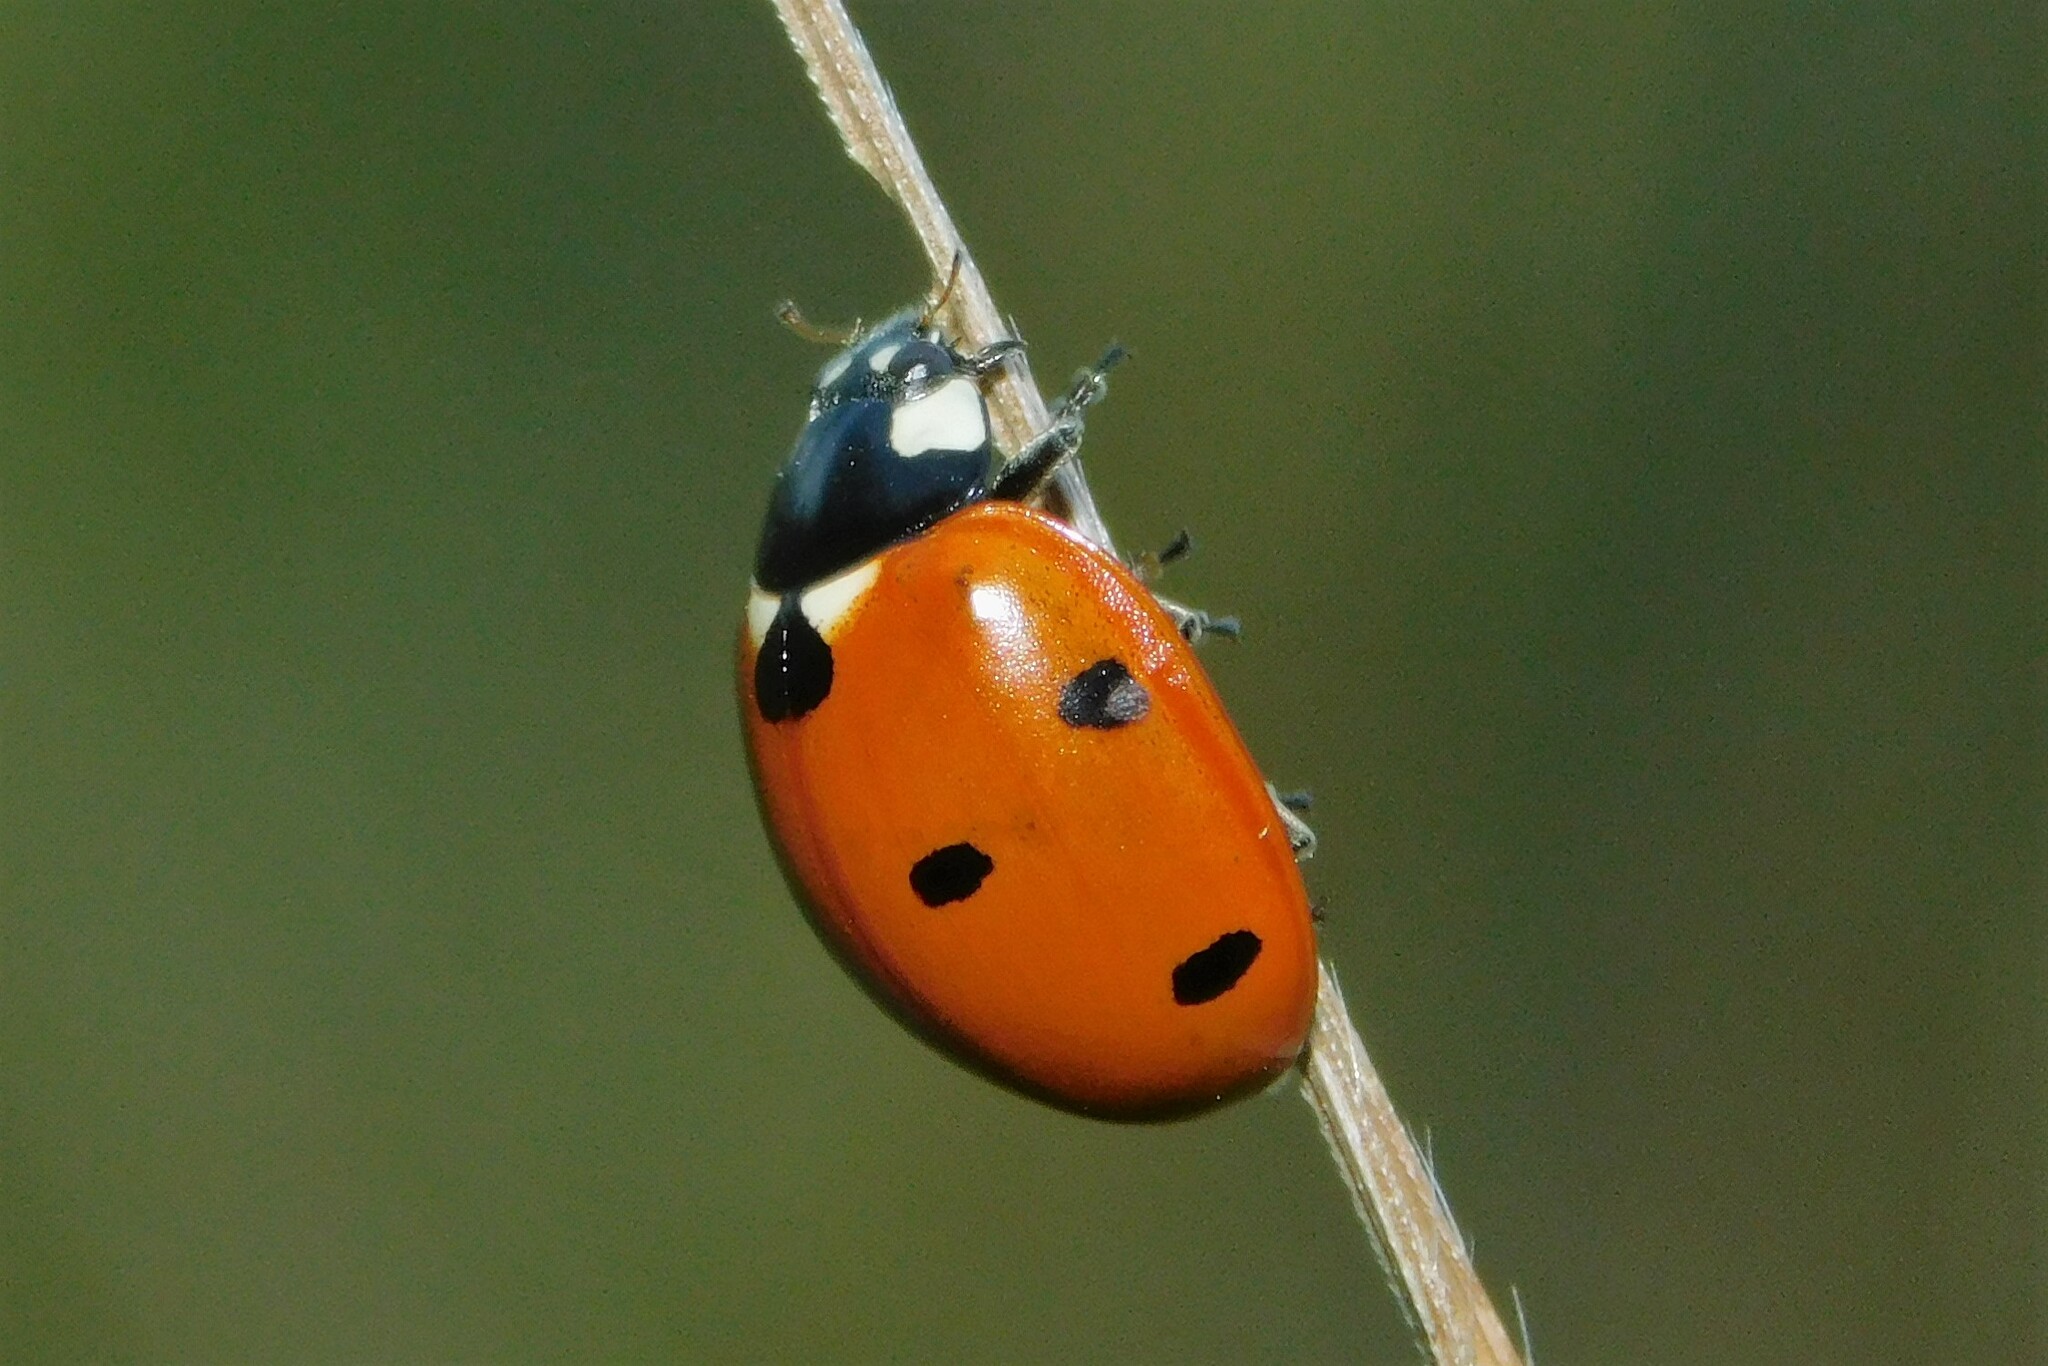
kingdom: Animalia
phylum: Arthropoda
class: Insecta
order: Coleoptera
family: Coccinellidae
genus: Coccinella
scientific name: Coccinella septempunctata
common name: Sevenspotted lady beetle
